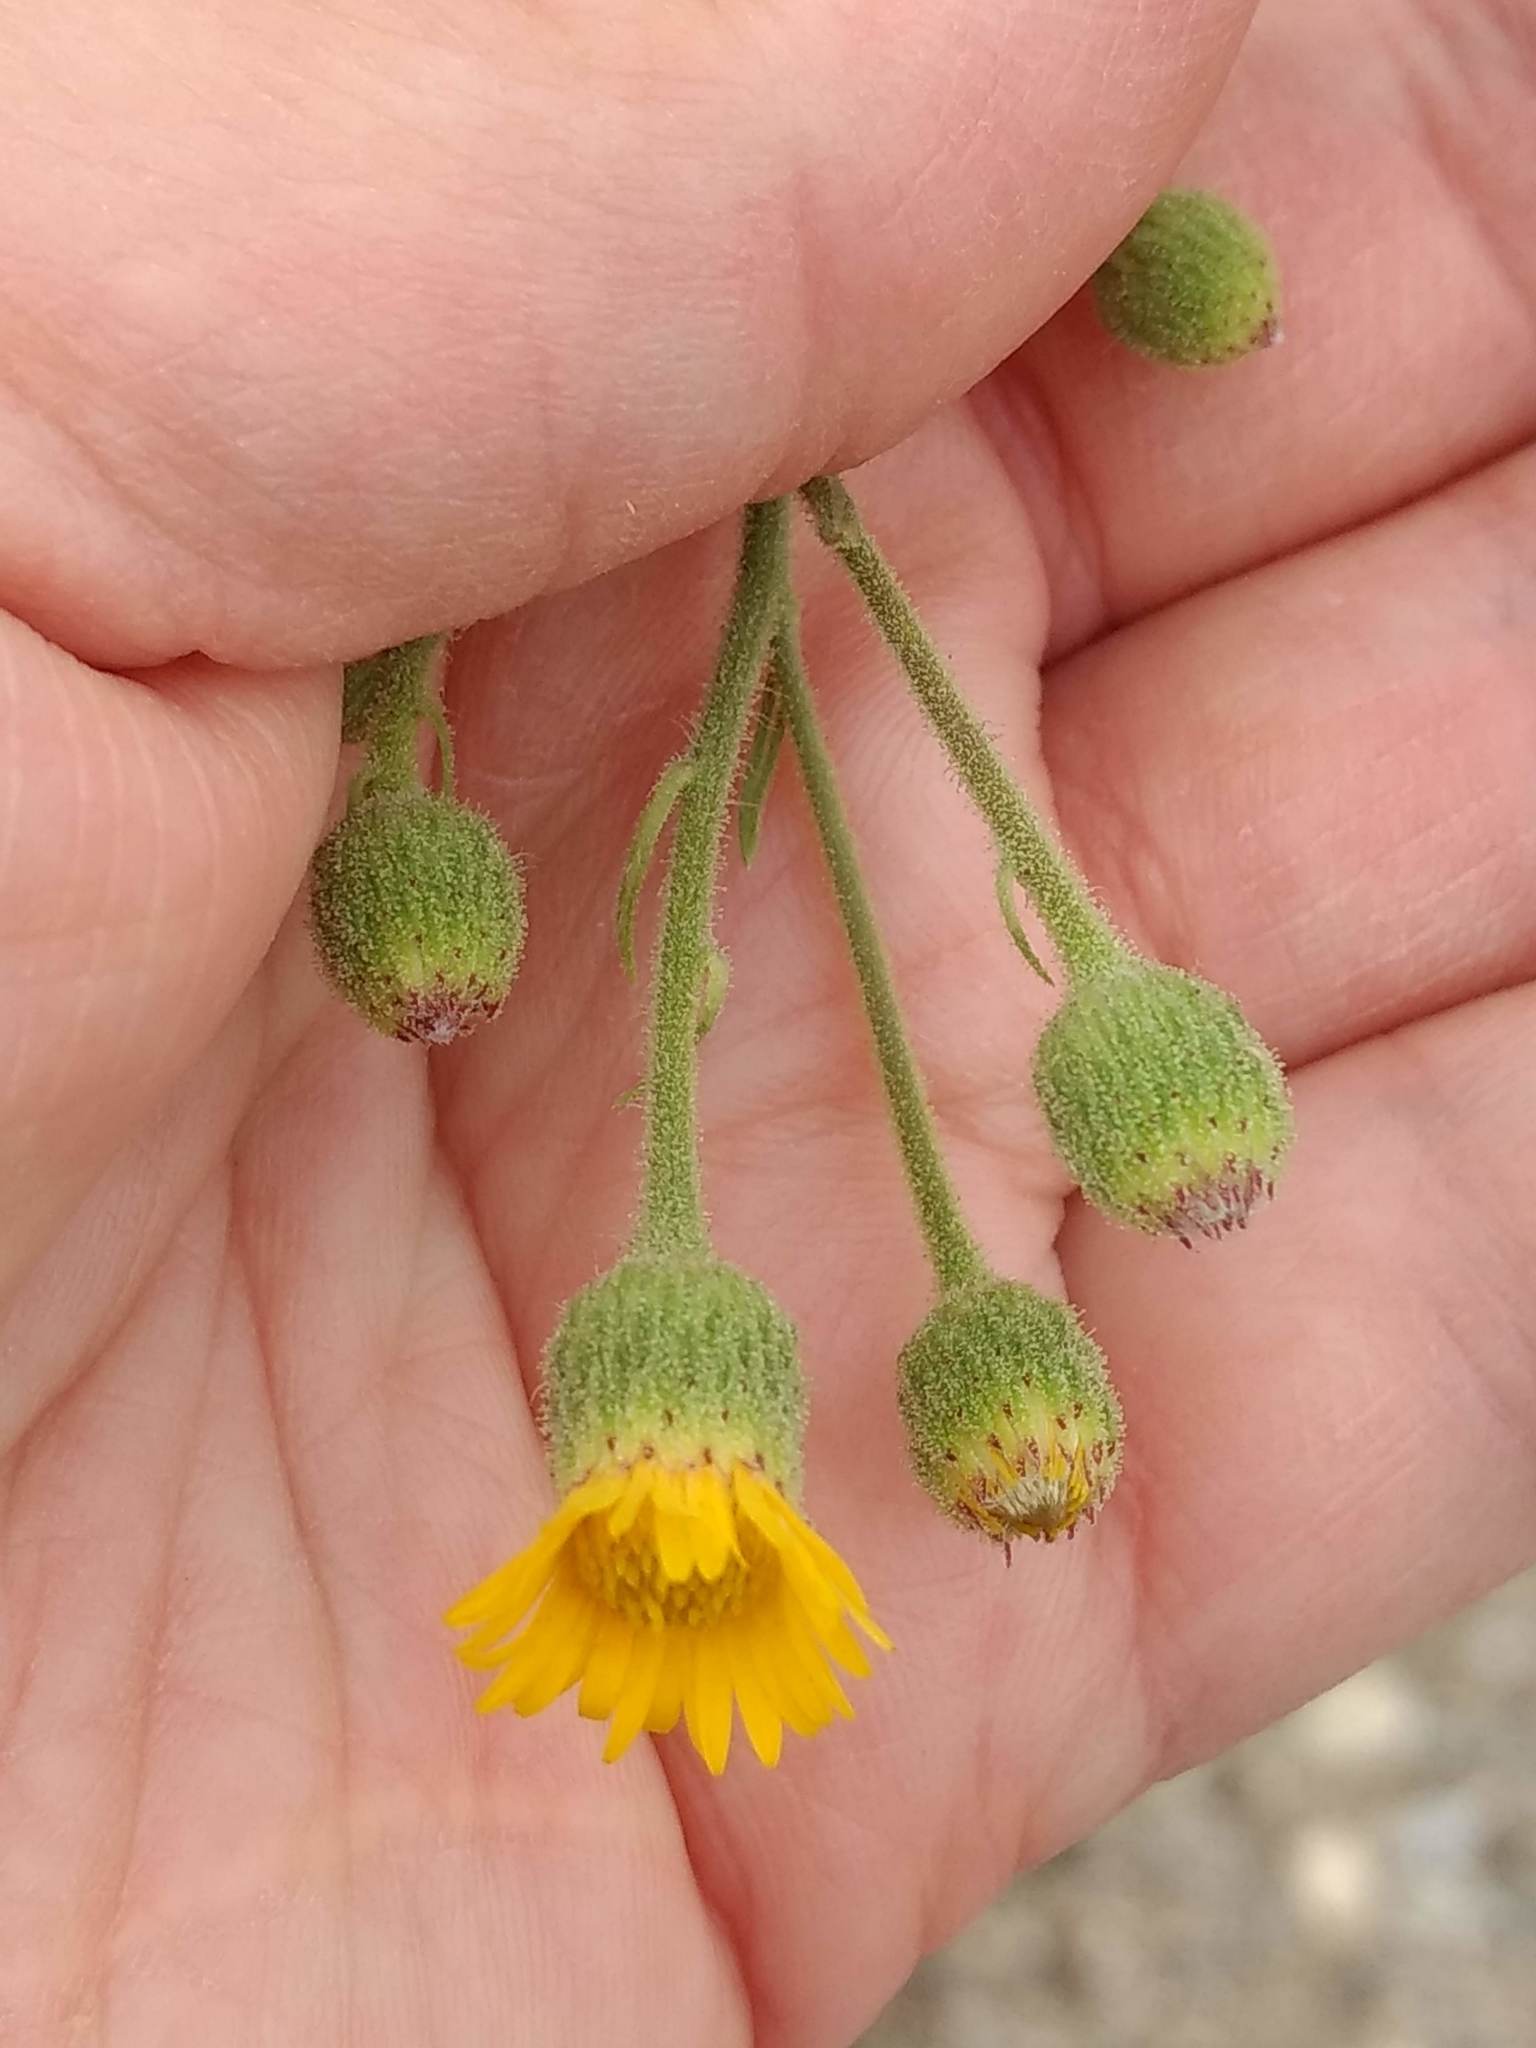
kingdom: Plantae
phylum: Tracheophyta
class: Magnoliopsida
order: Asterales
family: Asteraceae
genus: Heterotheca
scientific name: Heterotheca grandiflora
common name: Telegraphweed
